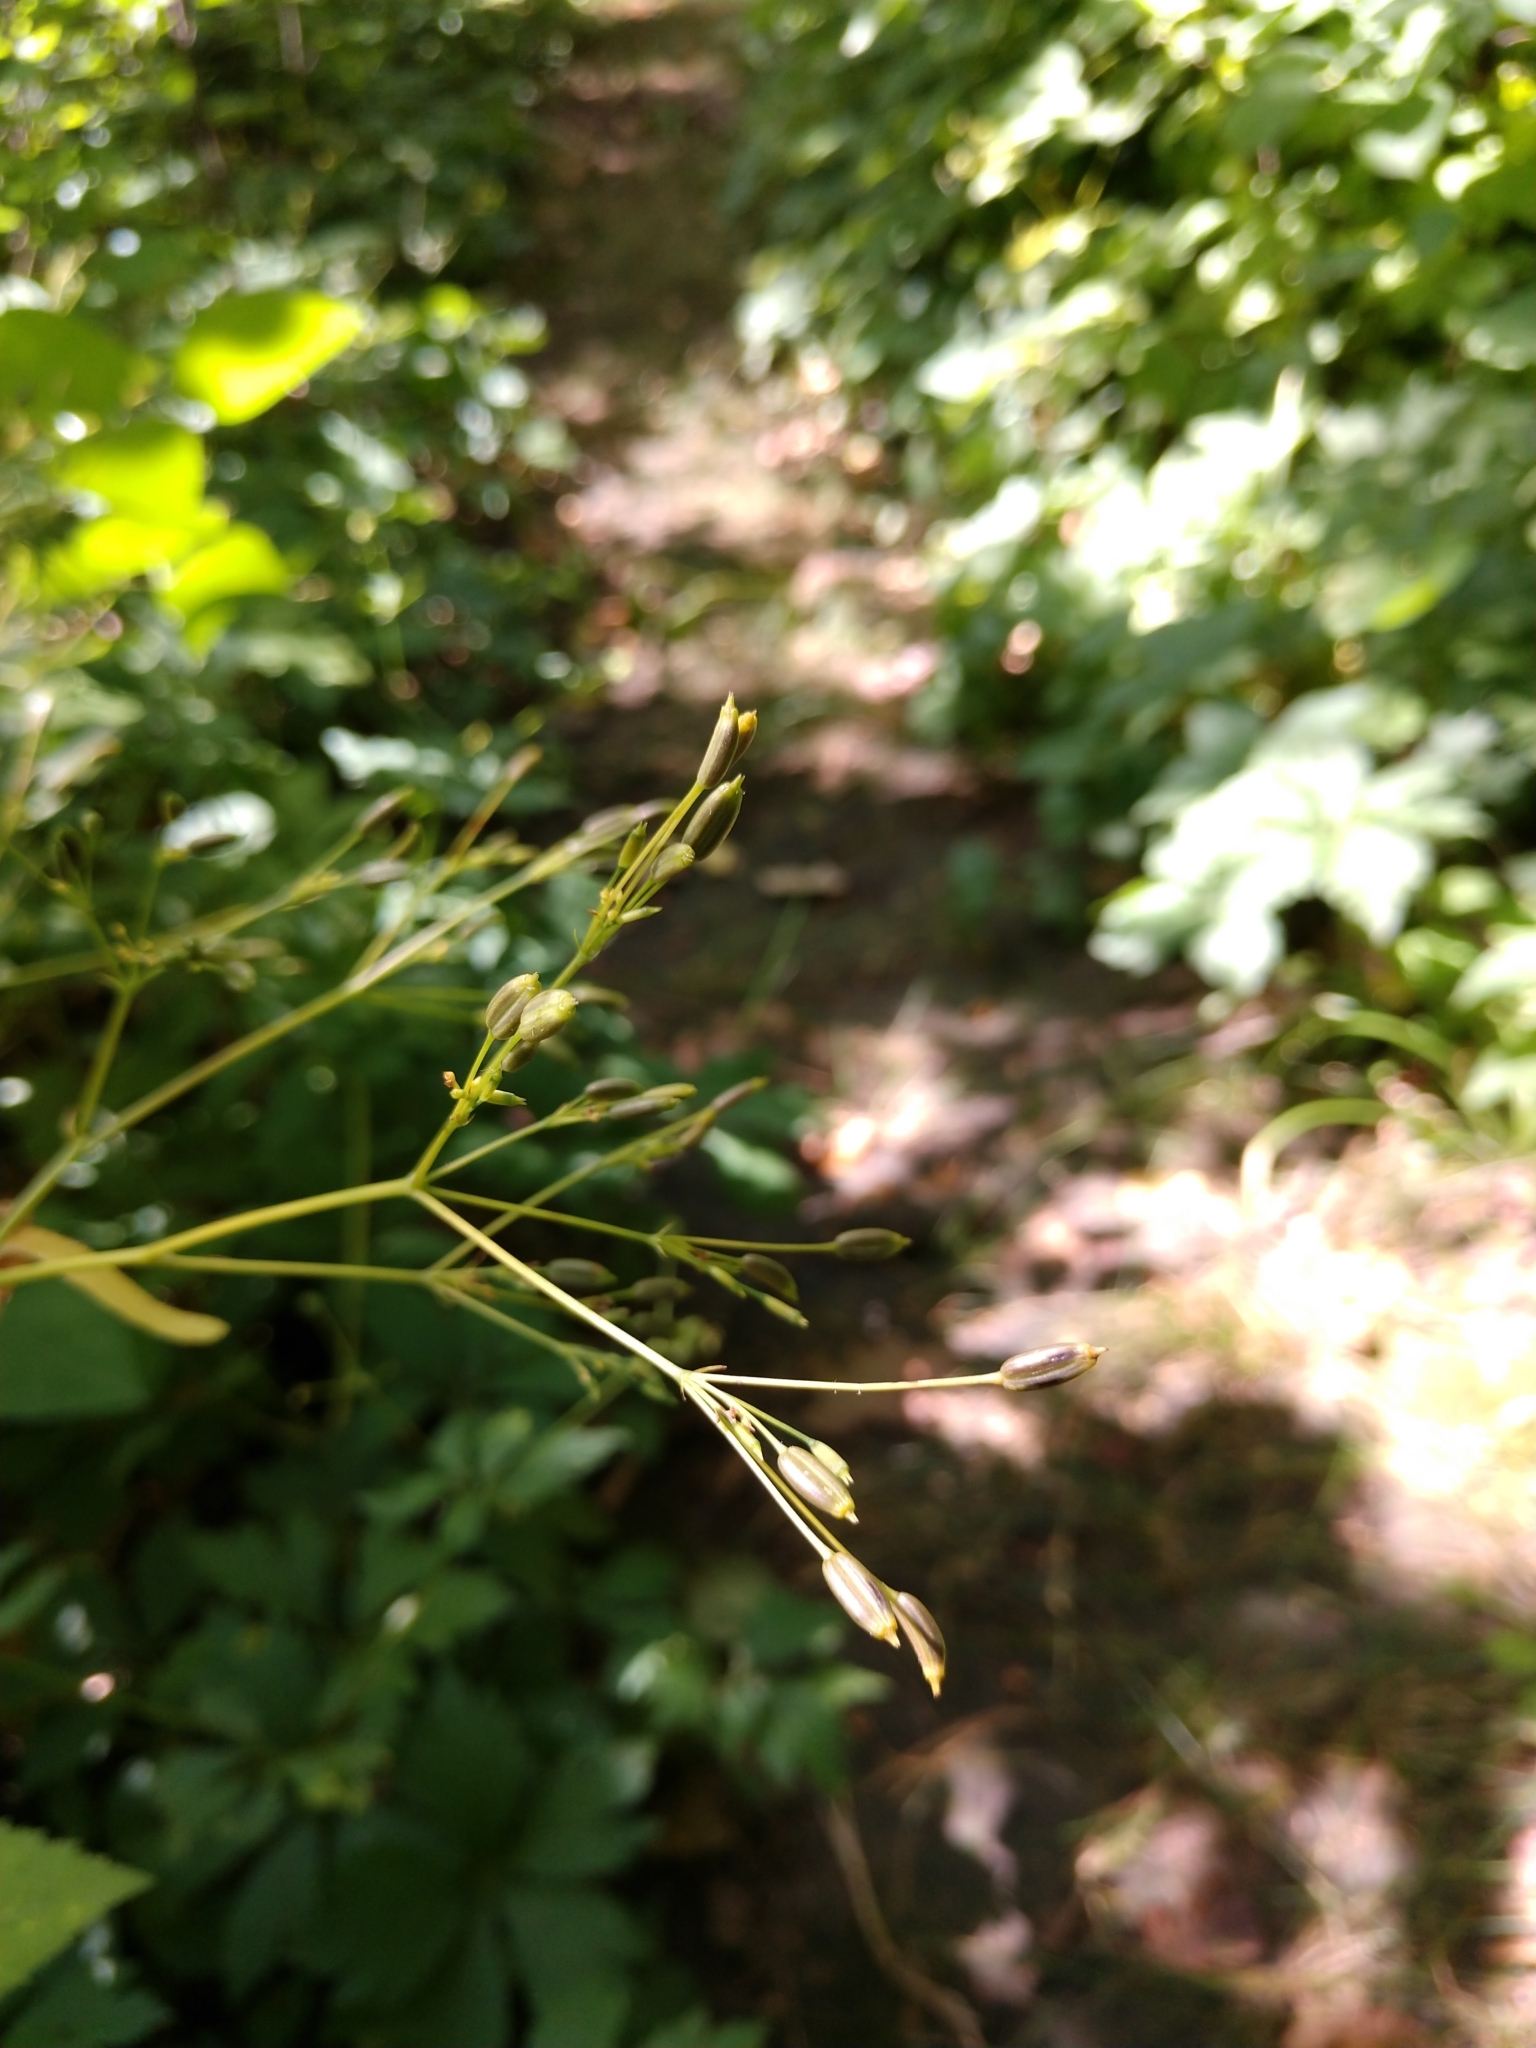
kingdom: Plantae
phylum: Tracheophyta
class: Magnoliopsida
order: Apiales
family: Apiaceae
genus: Cryptotaenia
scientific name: Cryptotaenia canadensis
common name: Honewort
